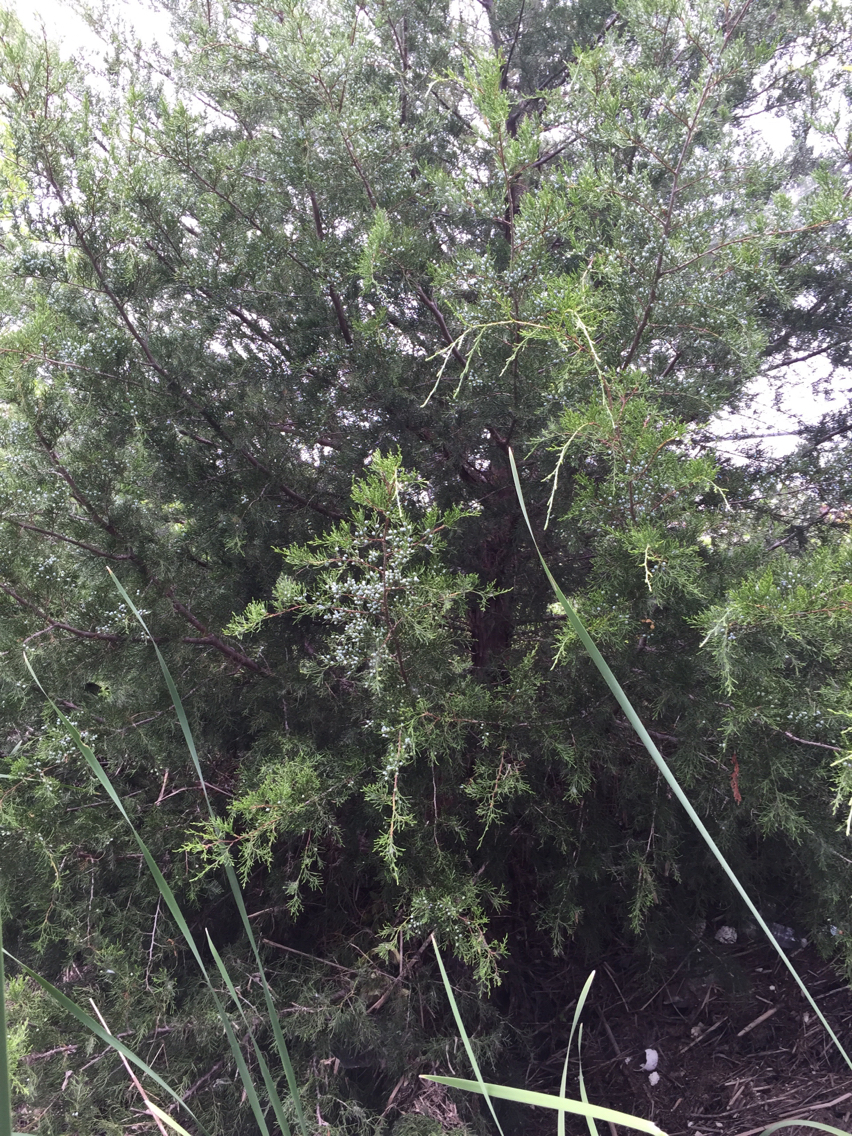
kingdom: Plantae
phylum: Tracheophyta
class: Pinopsida
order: Pinales
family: Cupressaceae
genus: Juniperus
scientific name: Juniperus virginiana
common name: Red juniper
